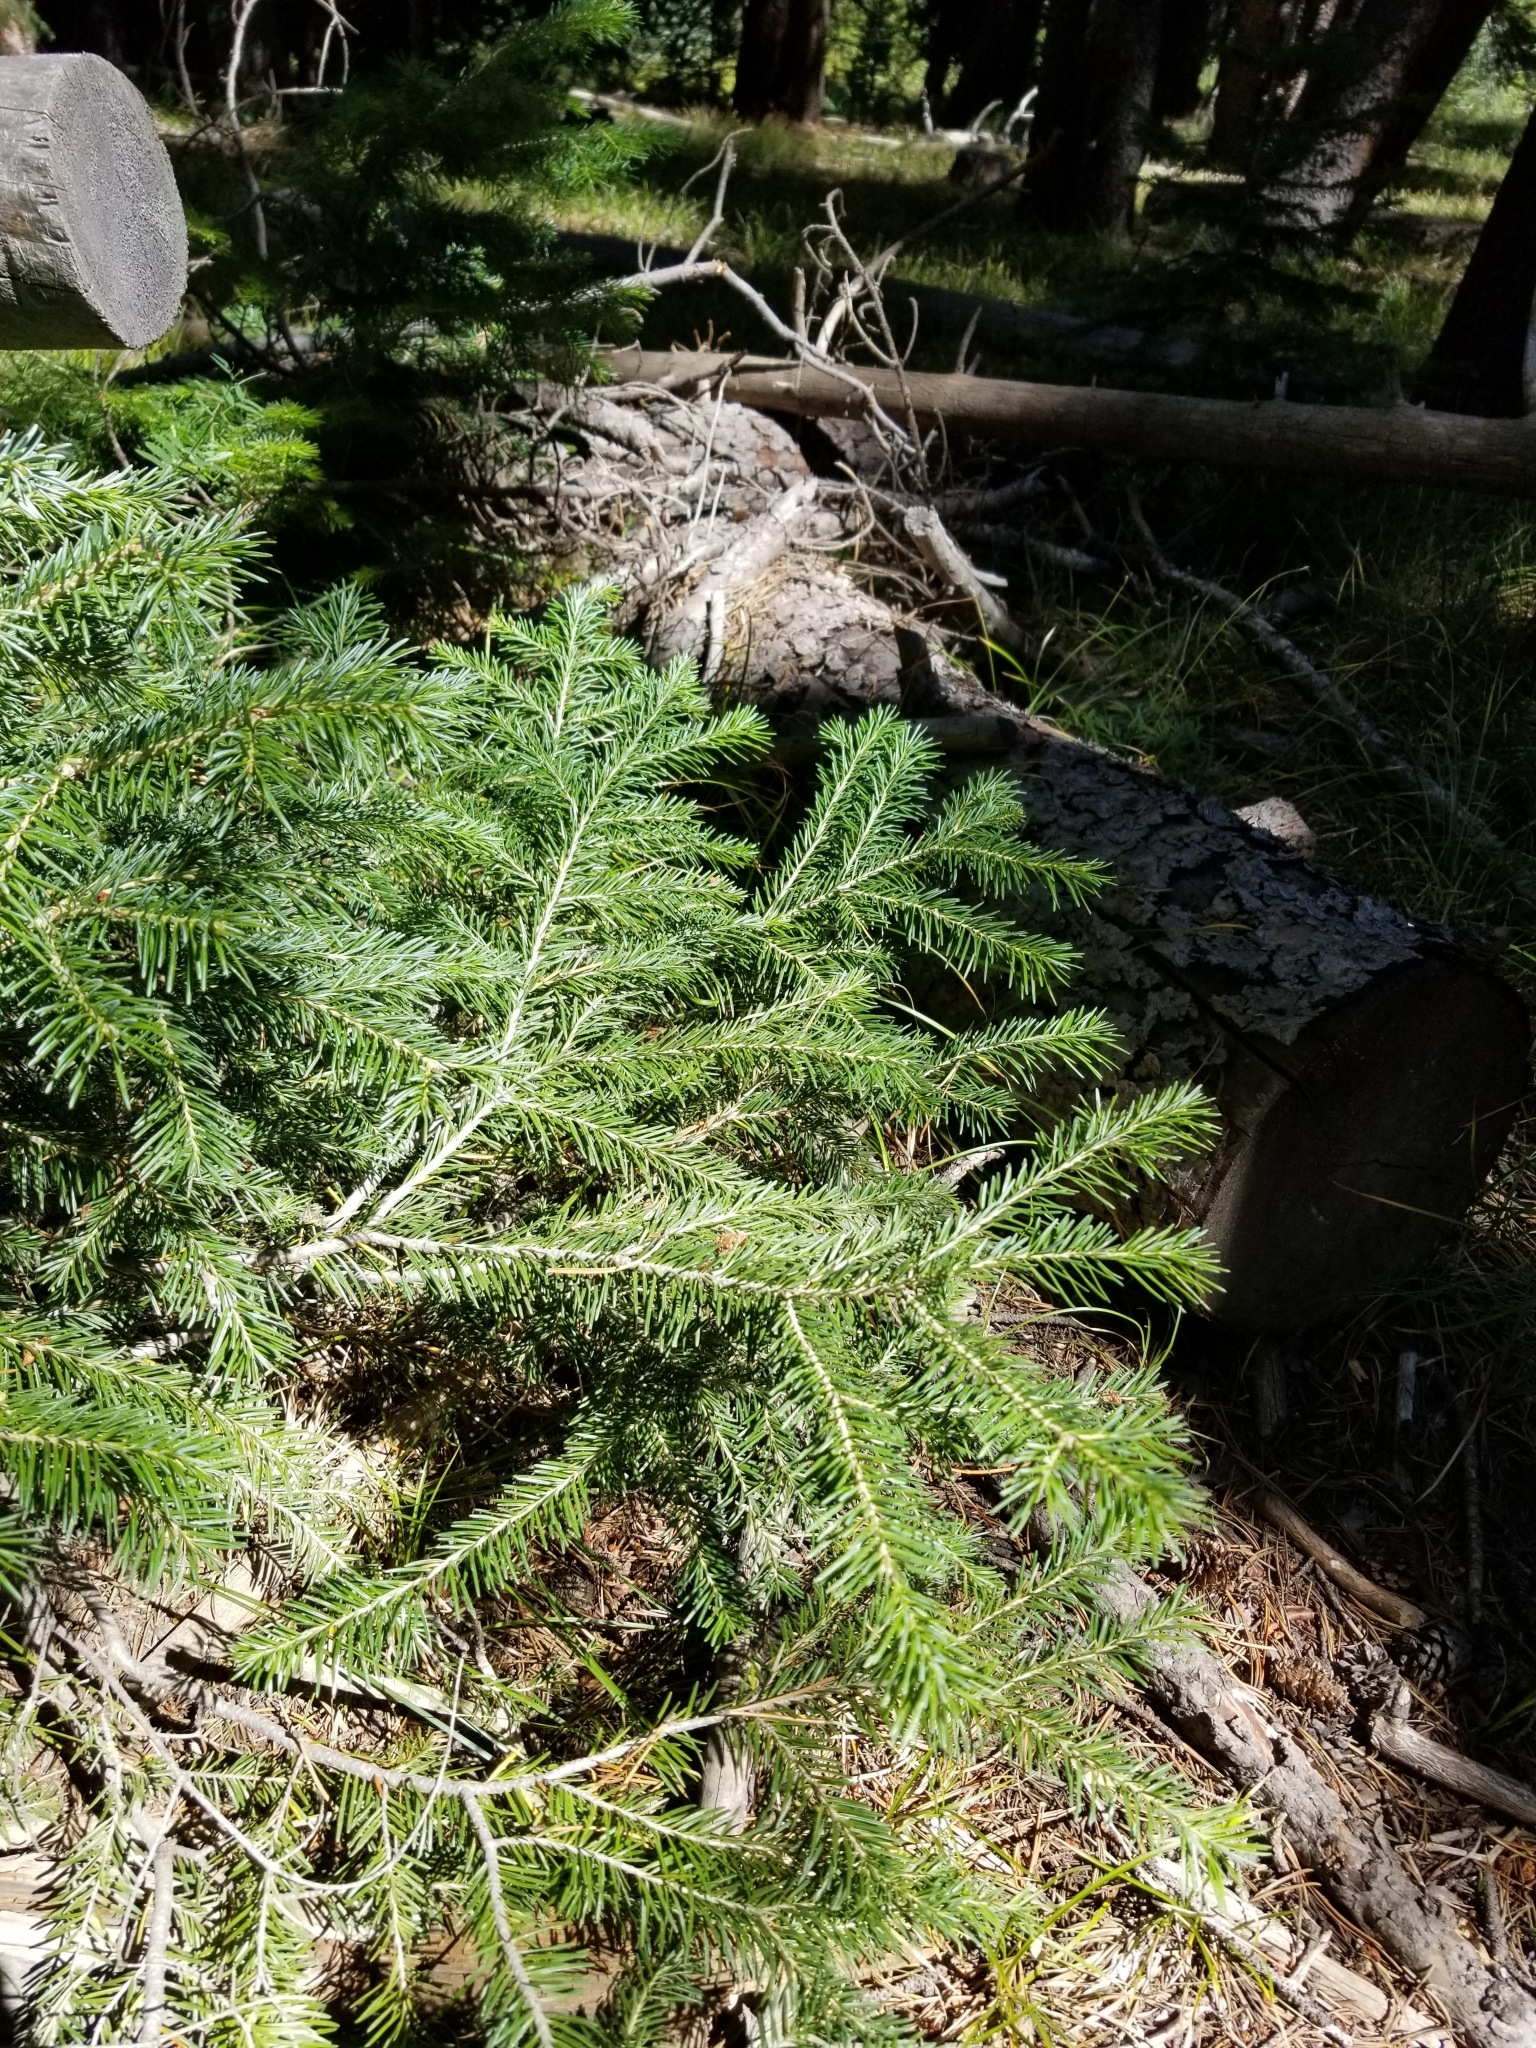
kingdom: Plantae
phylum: Tracheophyta
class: Pinopsida
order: Pinales
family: Pinaceae
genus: Abies
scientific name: Abies lasiocarpa
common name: Subalpine fir
